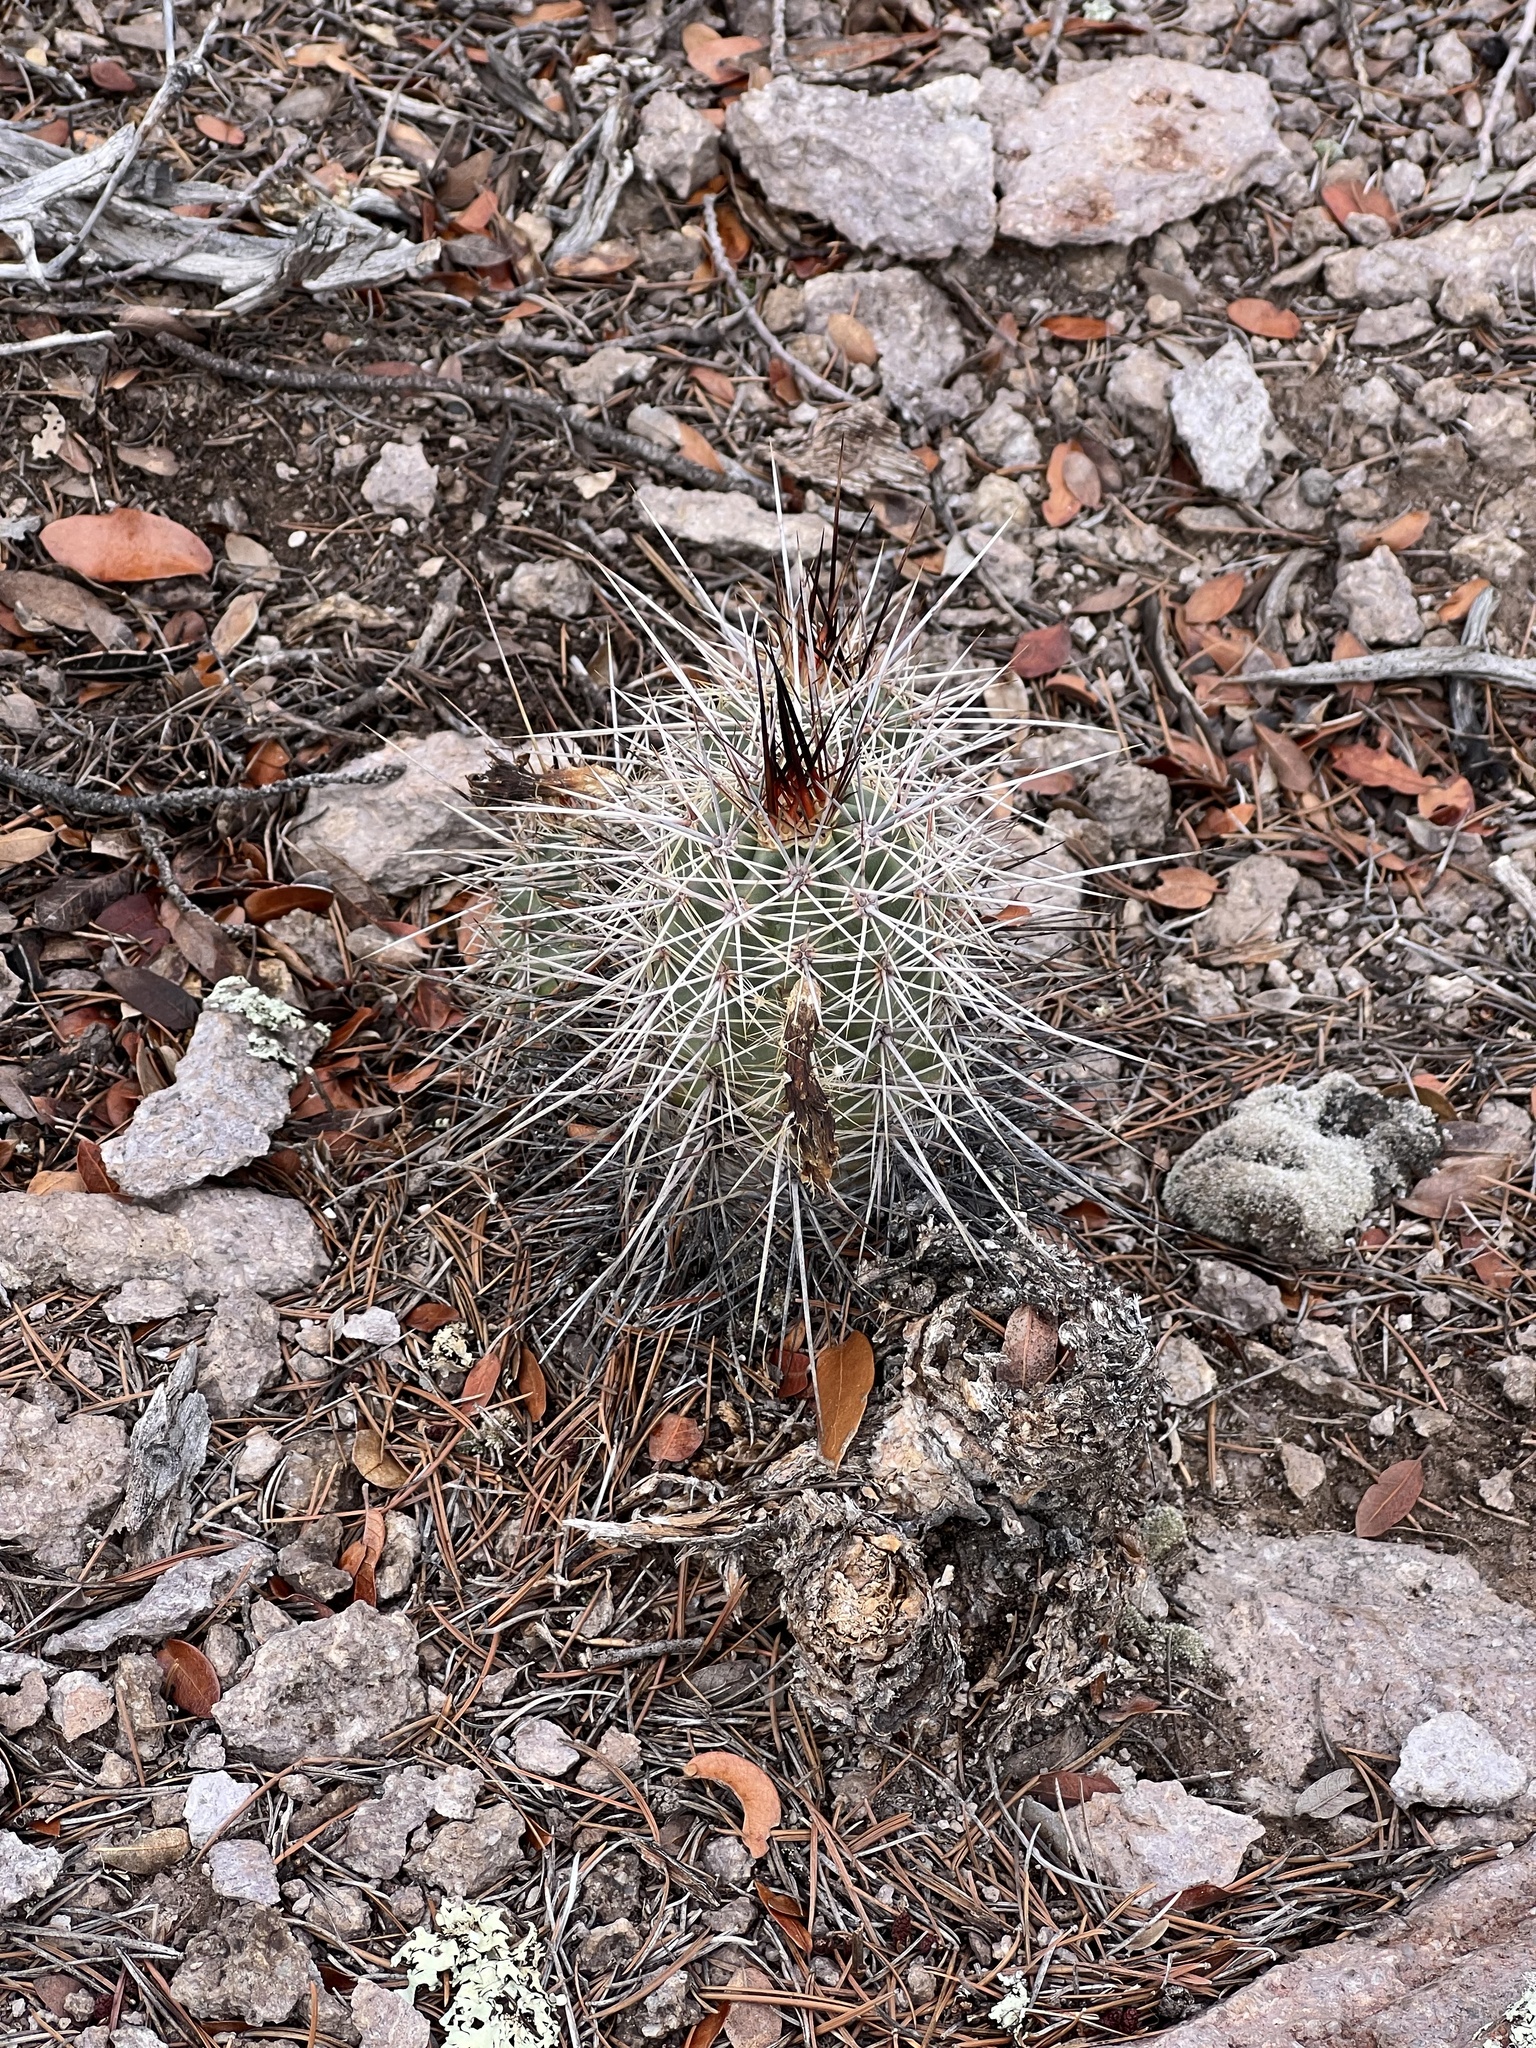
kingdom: Plantae
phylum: Tracheophyta
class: Magnoliopsida
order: Caryophyllales
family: Cactaceae
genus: Echinocereus
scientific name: Echinocereus arizonicus
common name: Arizona hedgehog cactus
